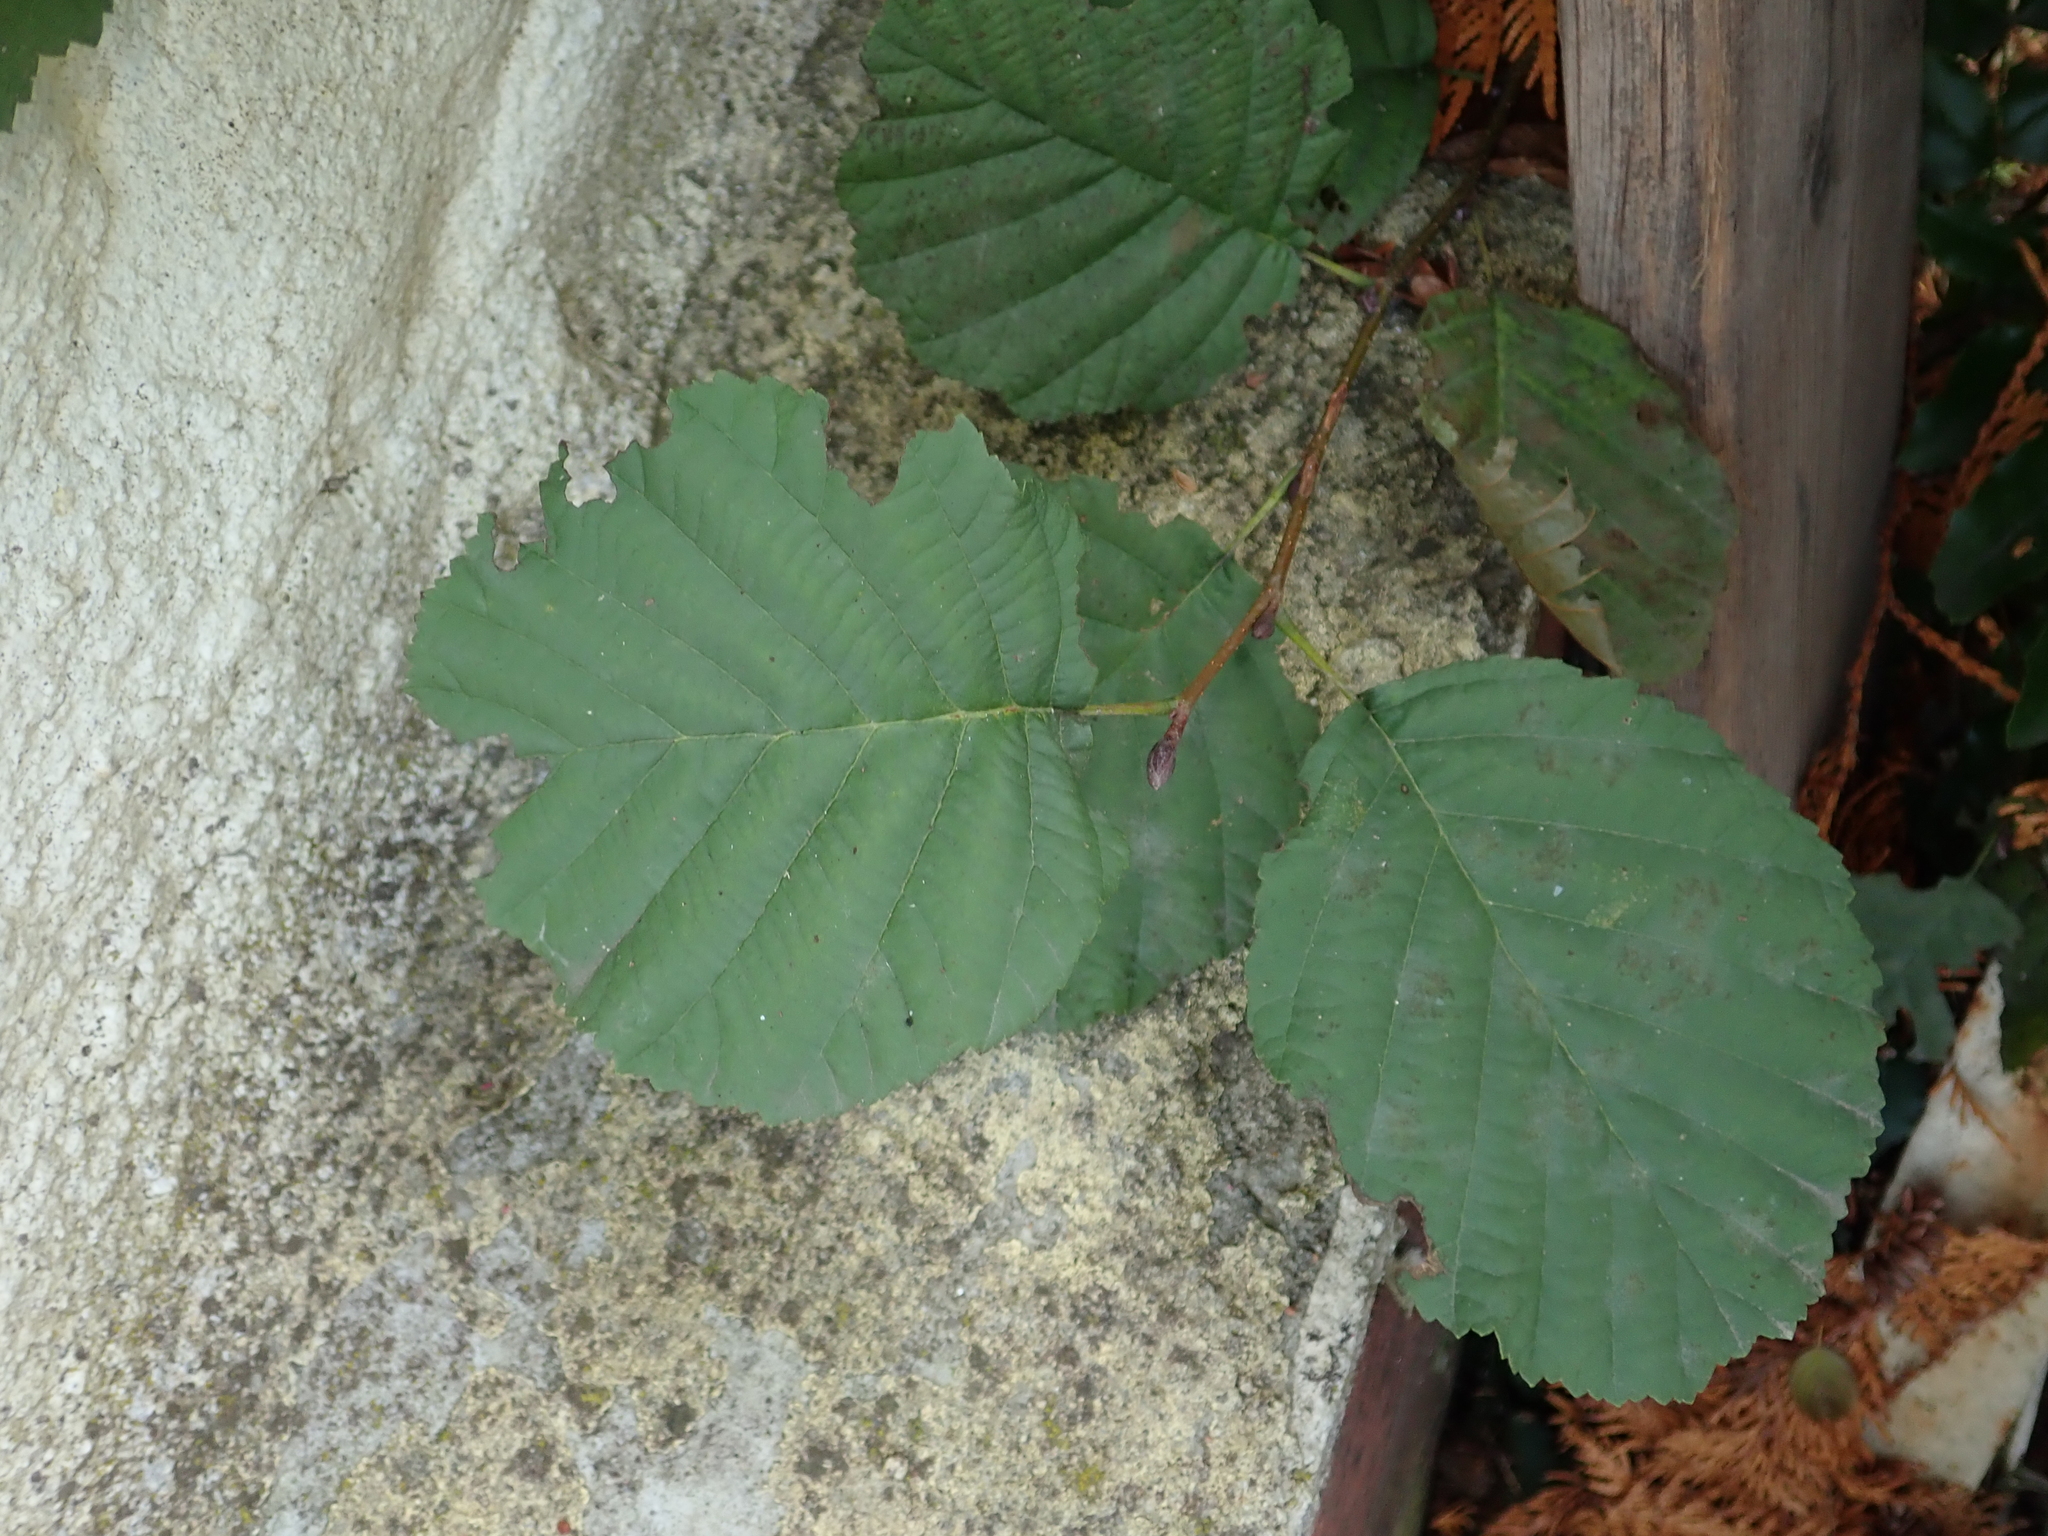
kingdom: Plantae
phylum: Tracheophyta
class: Magnoliopsida
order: Fagales
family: Betulaceae
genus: Alnus
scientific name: Alnus glutinosa
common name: Black alder
